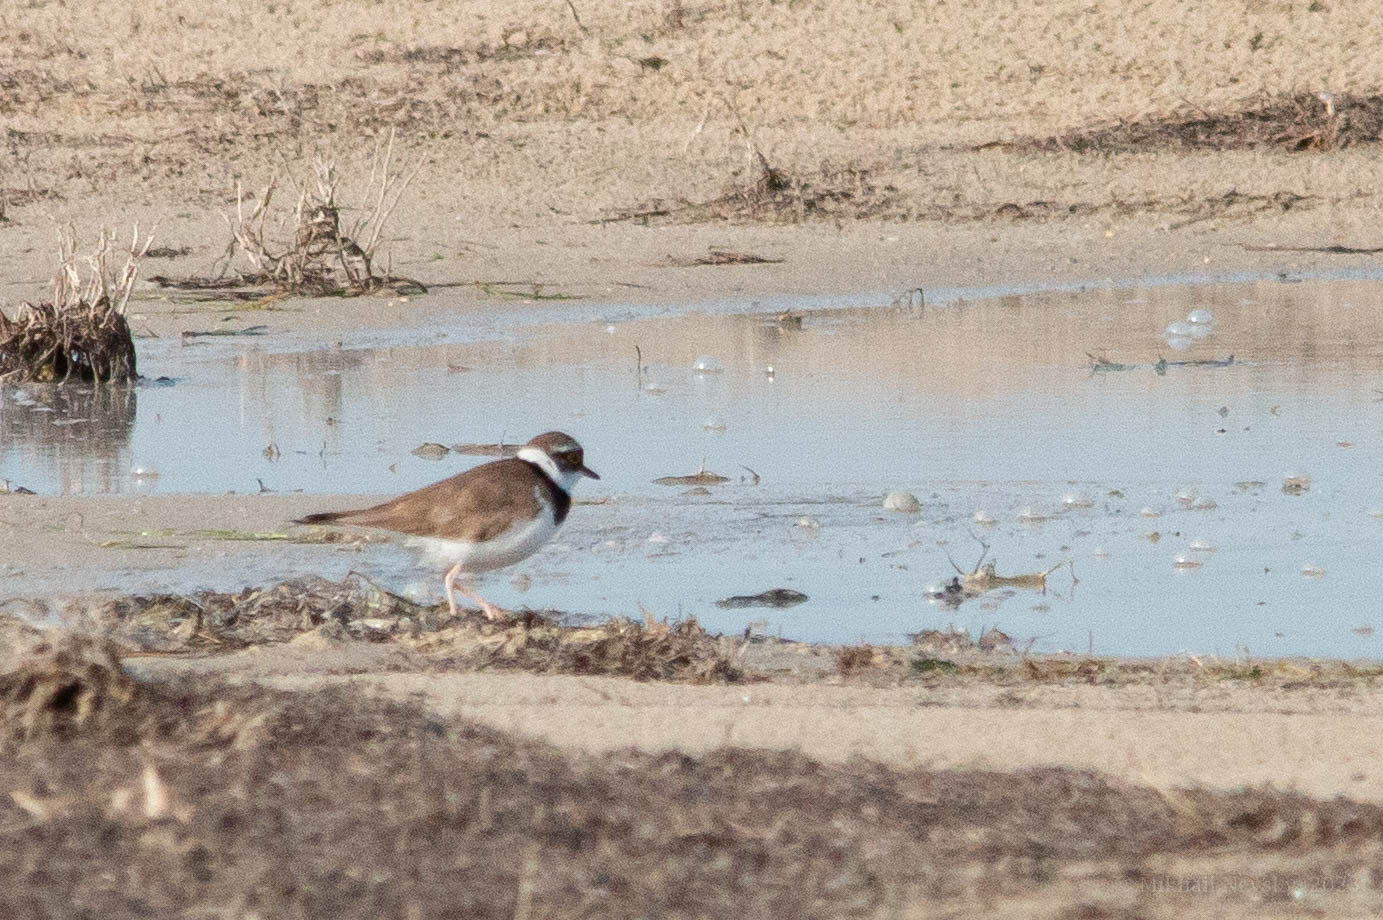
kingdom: Animalia
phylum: Chordata
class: Aves
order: Charadriiformes
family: Charadriidae
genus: Charadrius
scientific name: Charadrius dubius
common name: Little ringed plover
